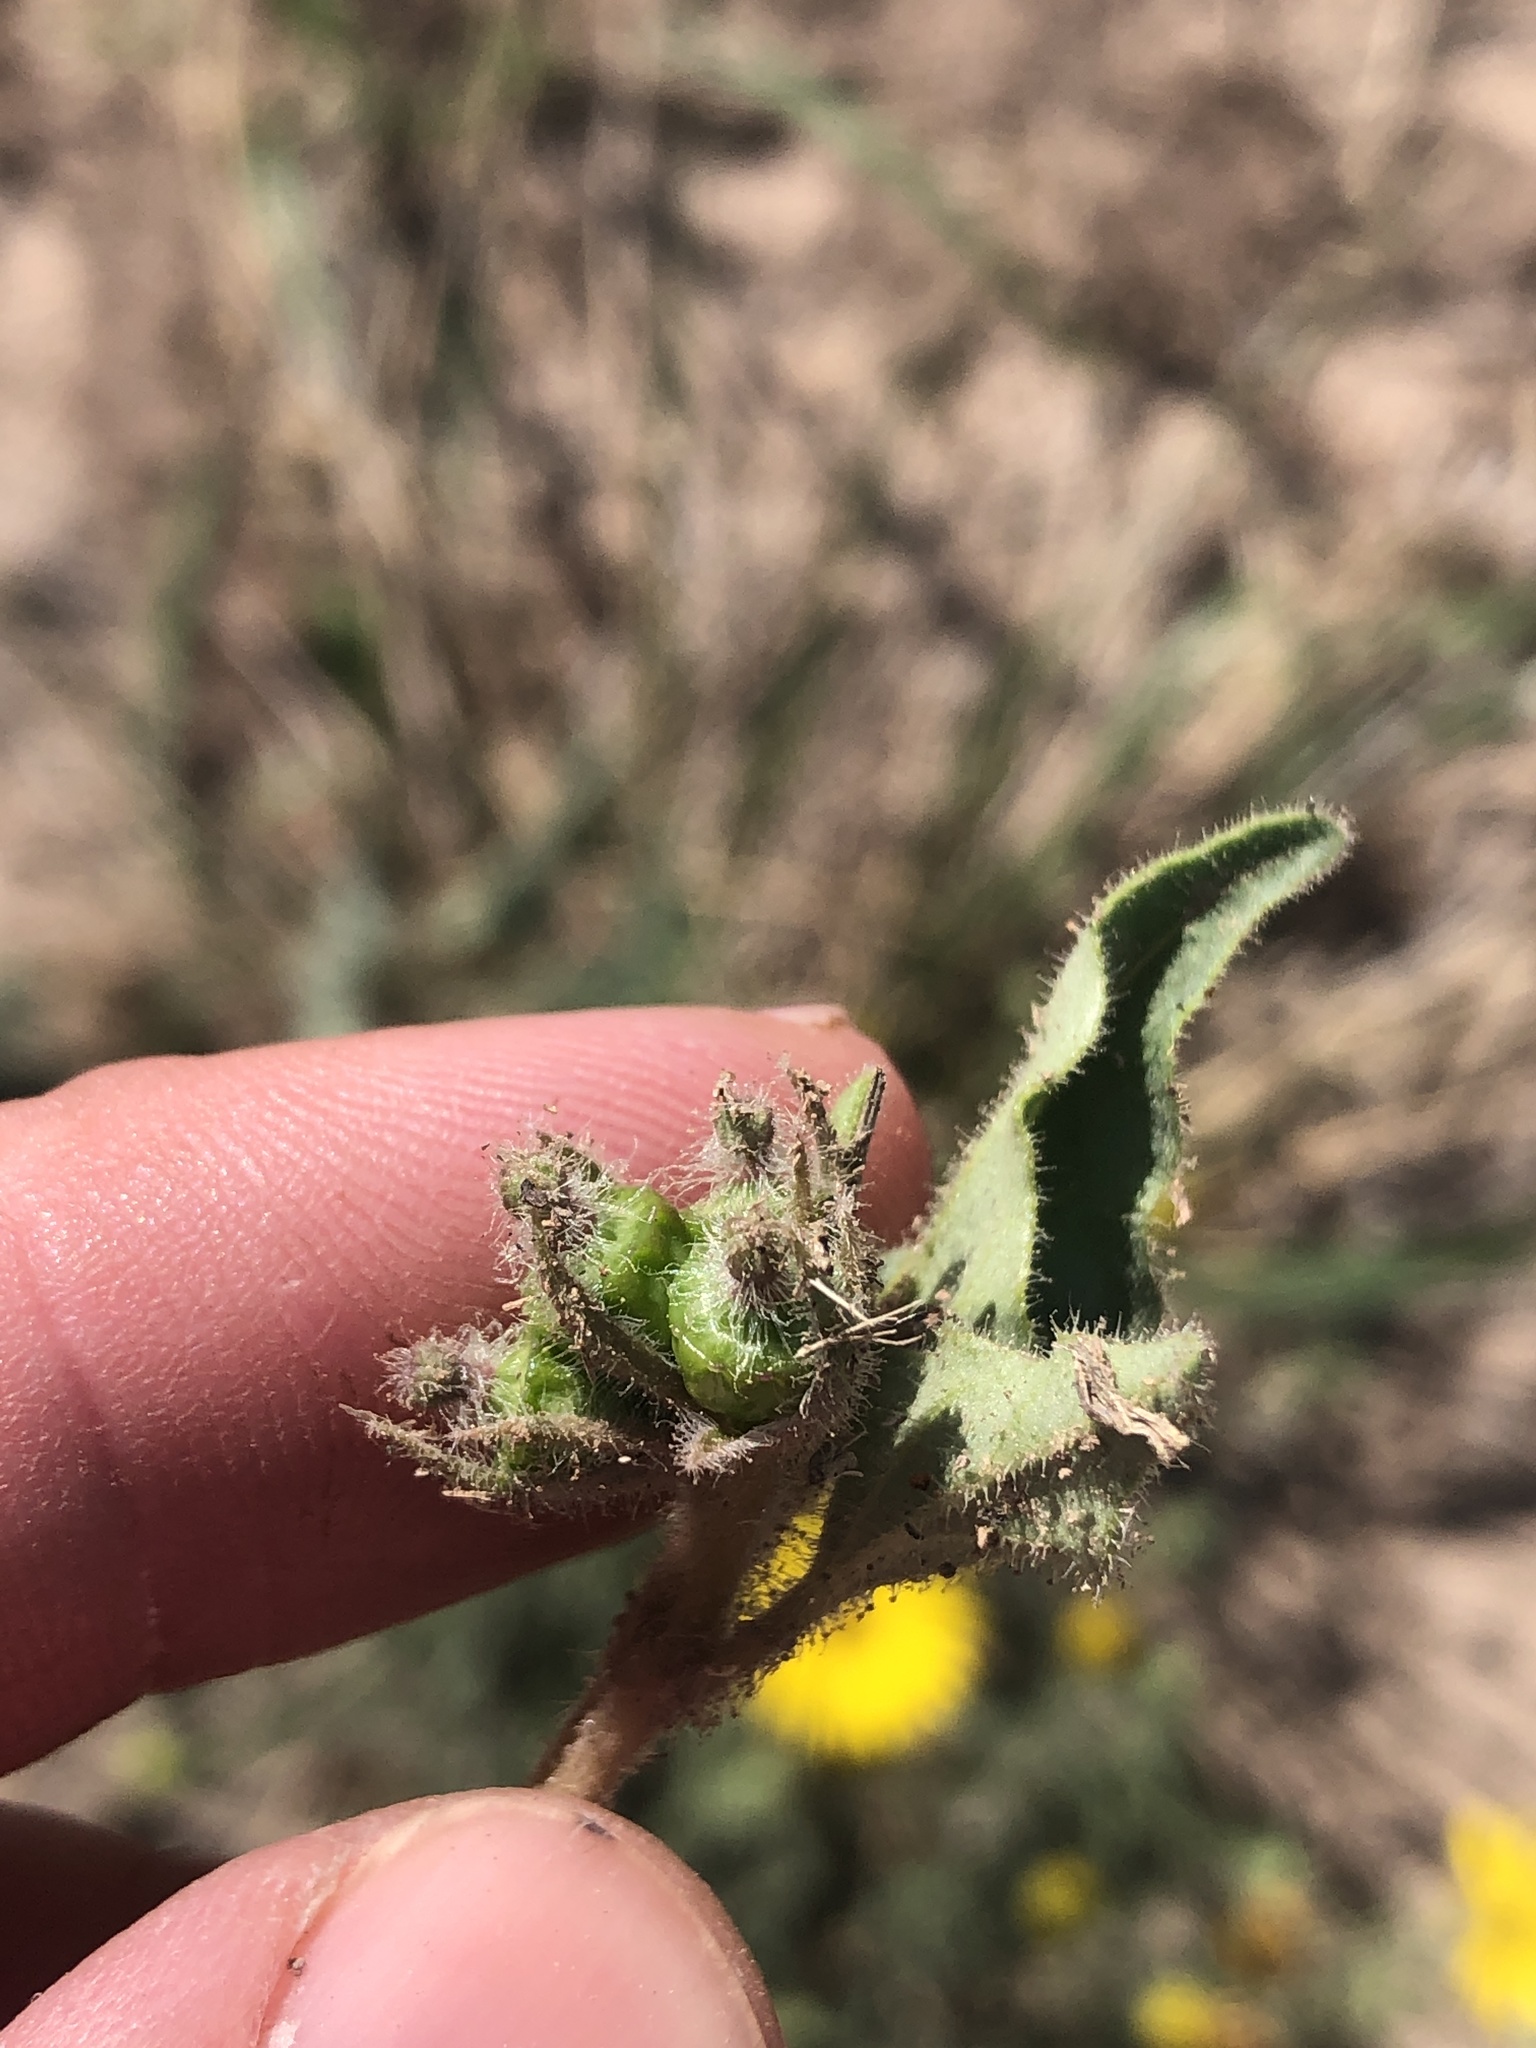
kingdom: Plantae
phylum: Tracheophyta
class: Magnoliopsida
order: Caryophyllales
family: Nyctaginaceae
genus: Nyctaginia
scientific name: Nyctaginia capitata
